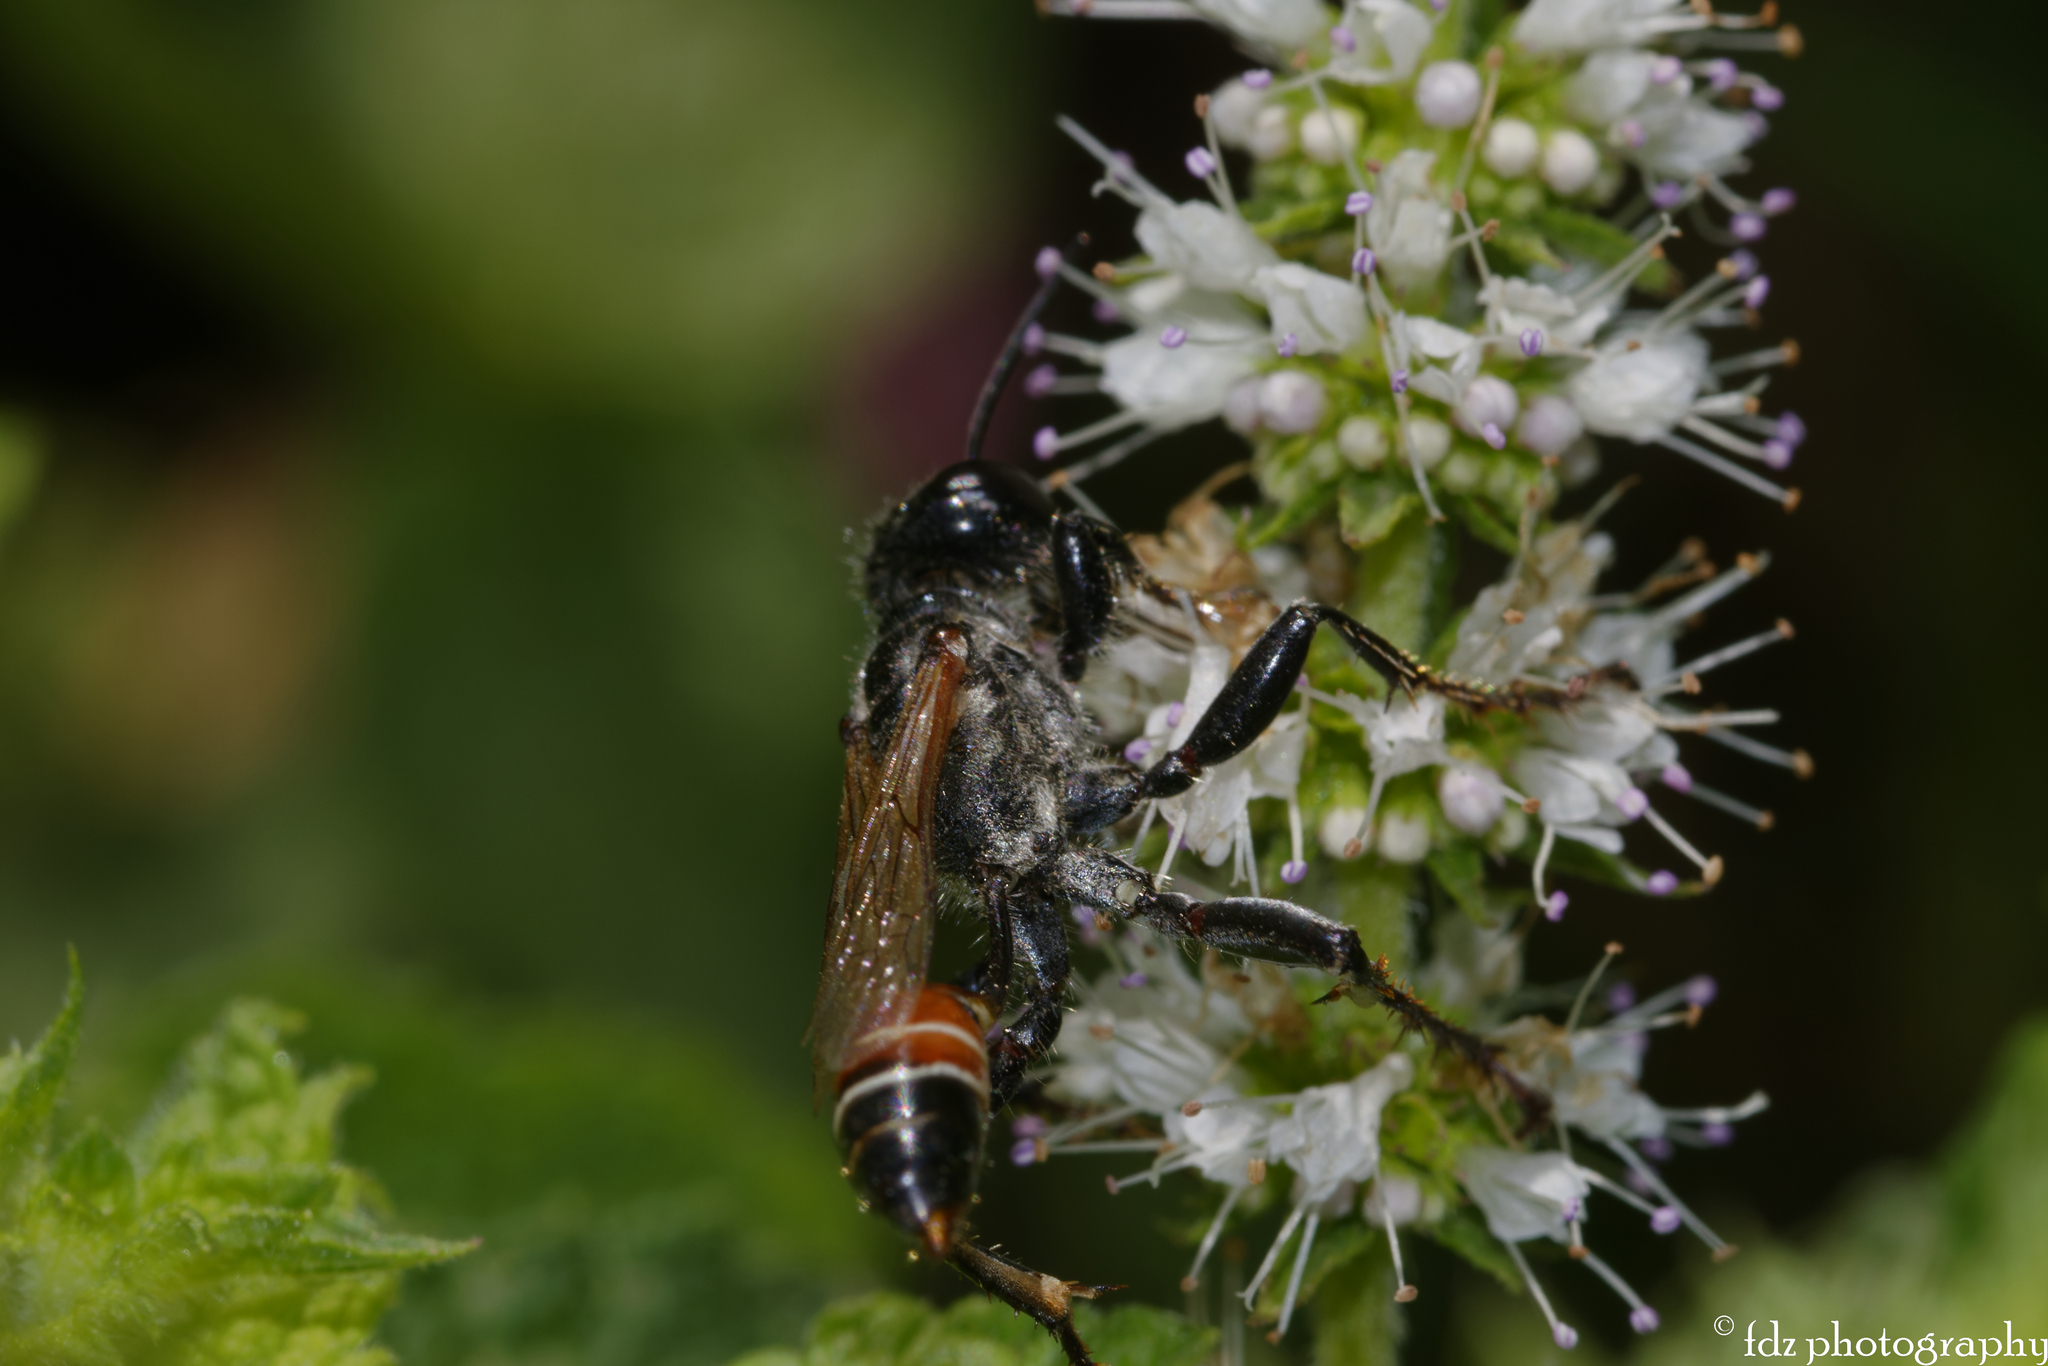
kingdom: Animalia
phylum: Arthropoda
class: Insecta
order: Hymenoptera
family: Sphecidae
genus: Prionyx
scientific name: Prionyx kirbii
